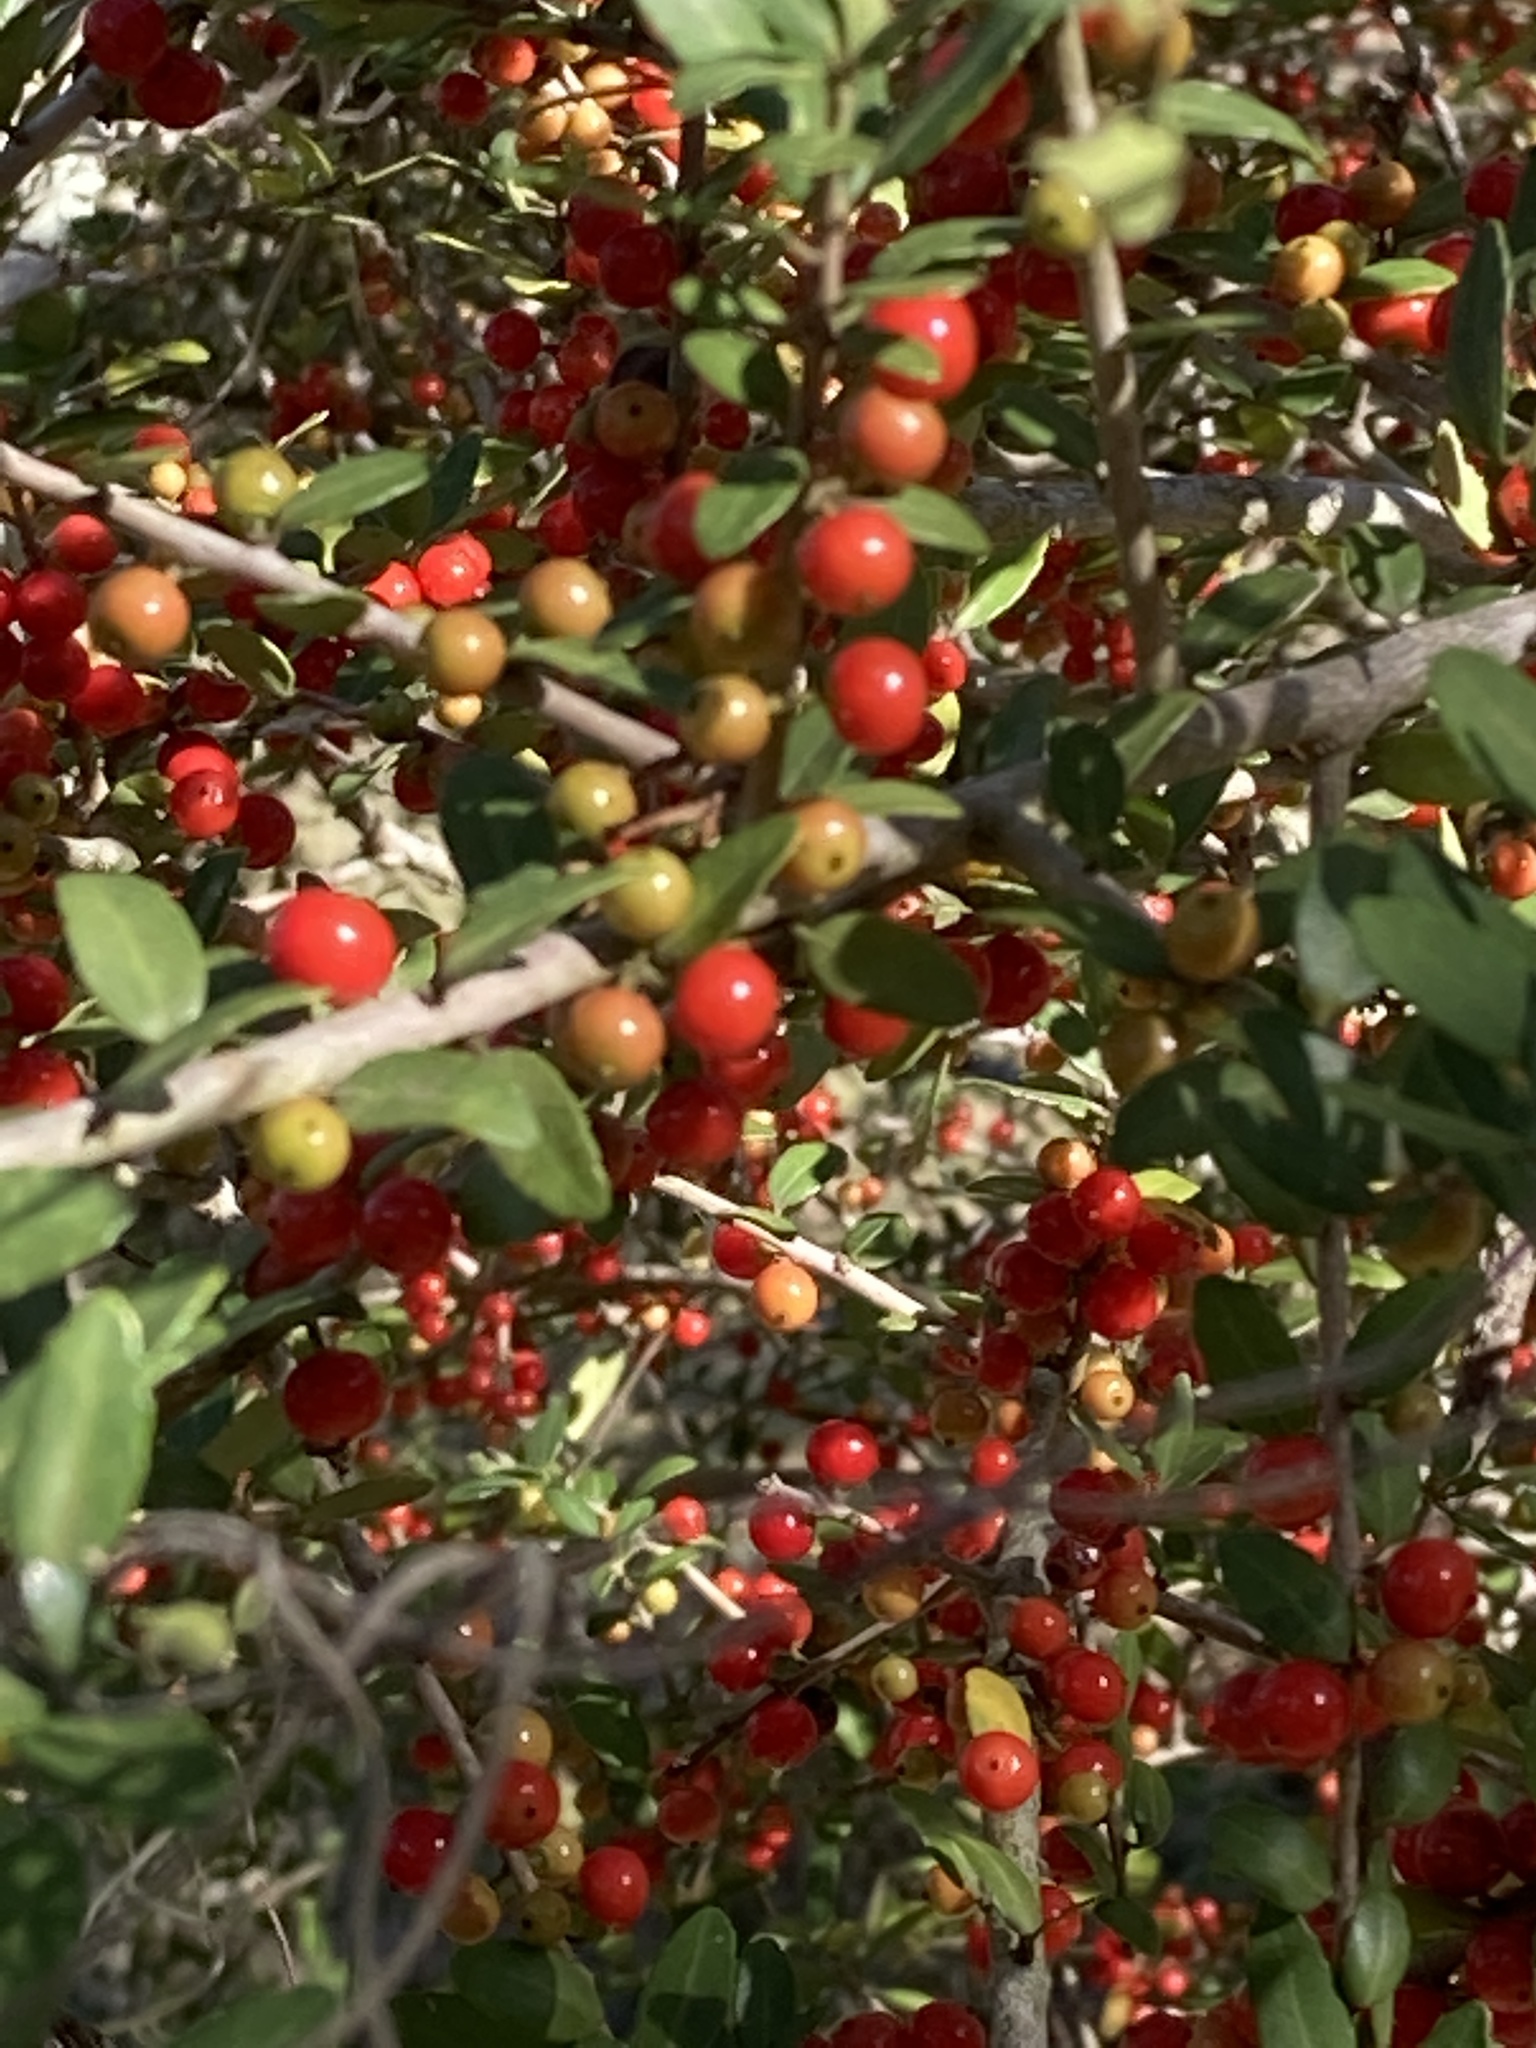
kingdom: Plantae
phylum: Tracheophyta
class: Magnoliopsida
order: Aquifoliales
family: Aquifoliaceae
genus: Ilex
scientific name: Ilex vomitoria
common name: Yaupon holly
